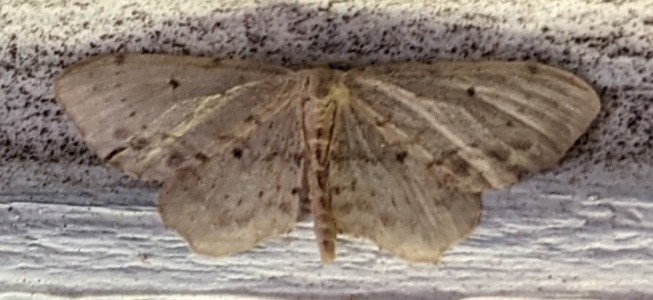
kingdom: Animalia
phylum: Arthropoda
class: Insecta
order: Lepidoptera
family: Geometridae
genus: Idaea
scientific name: Idaea dimidiata
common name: Single-dotted wave
